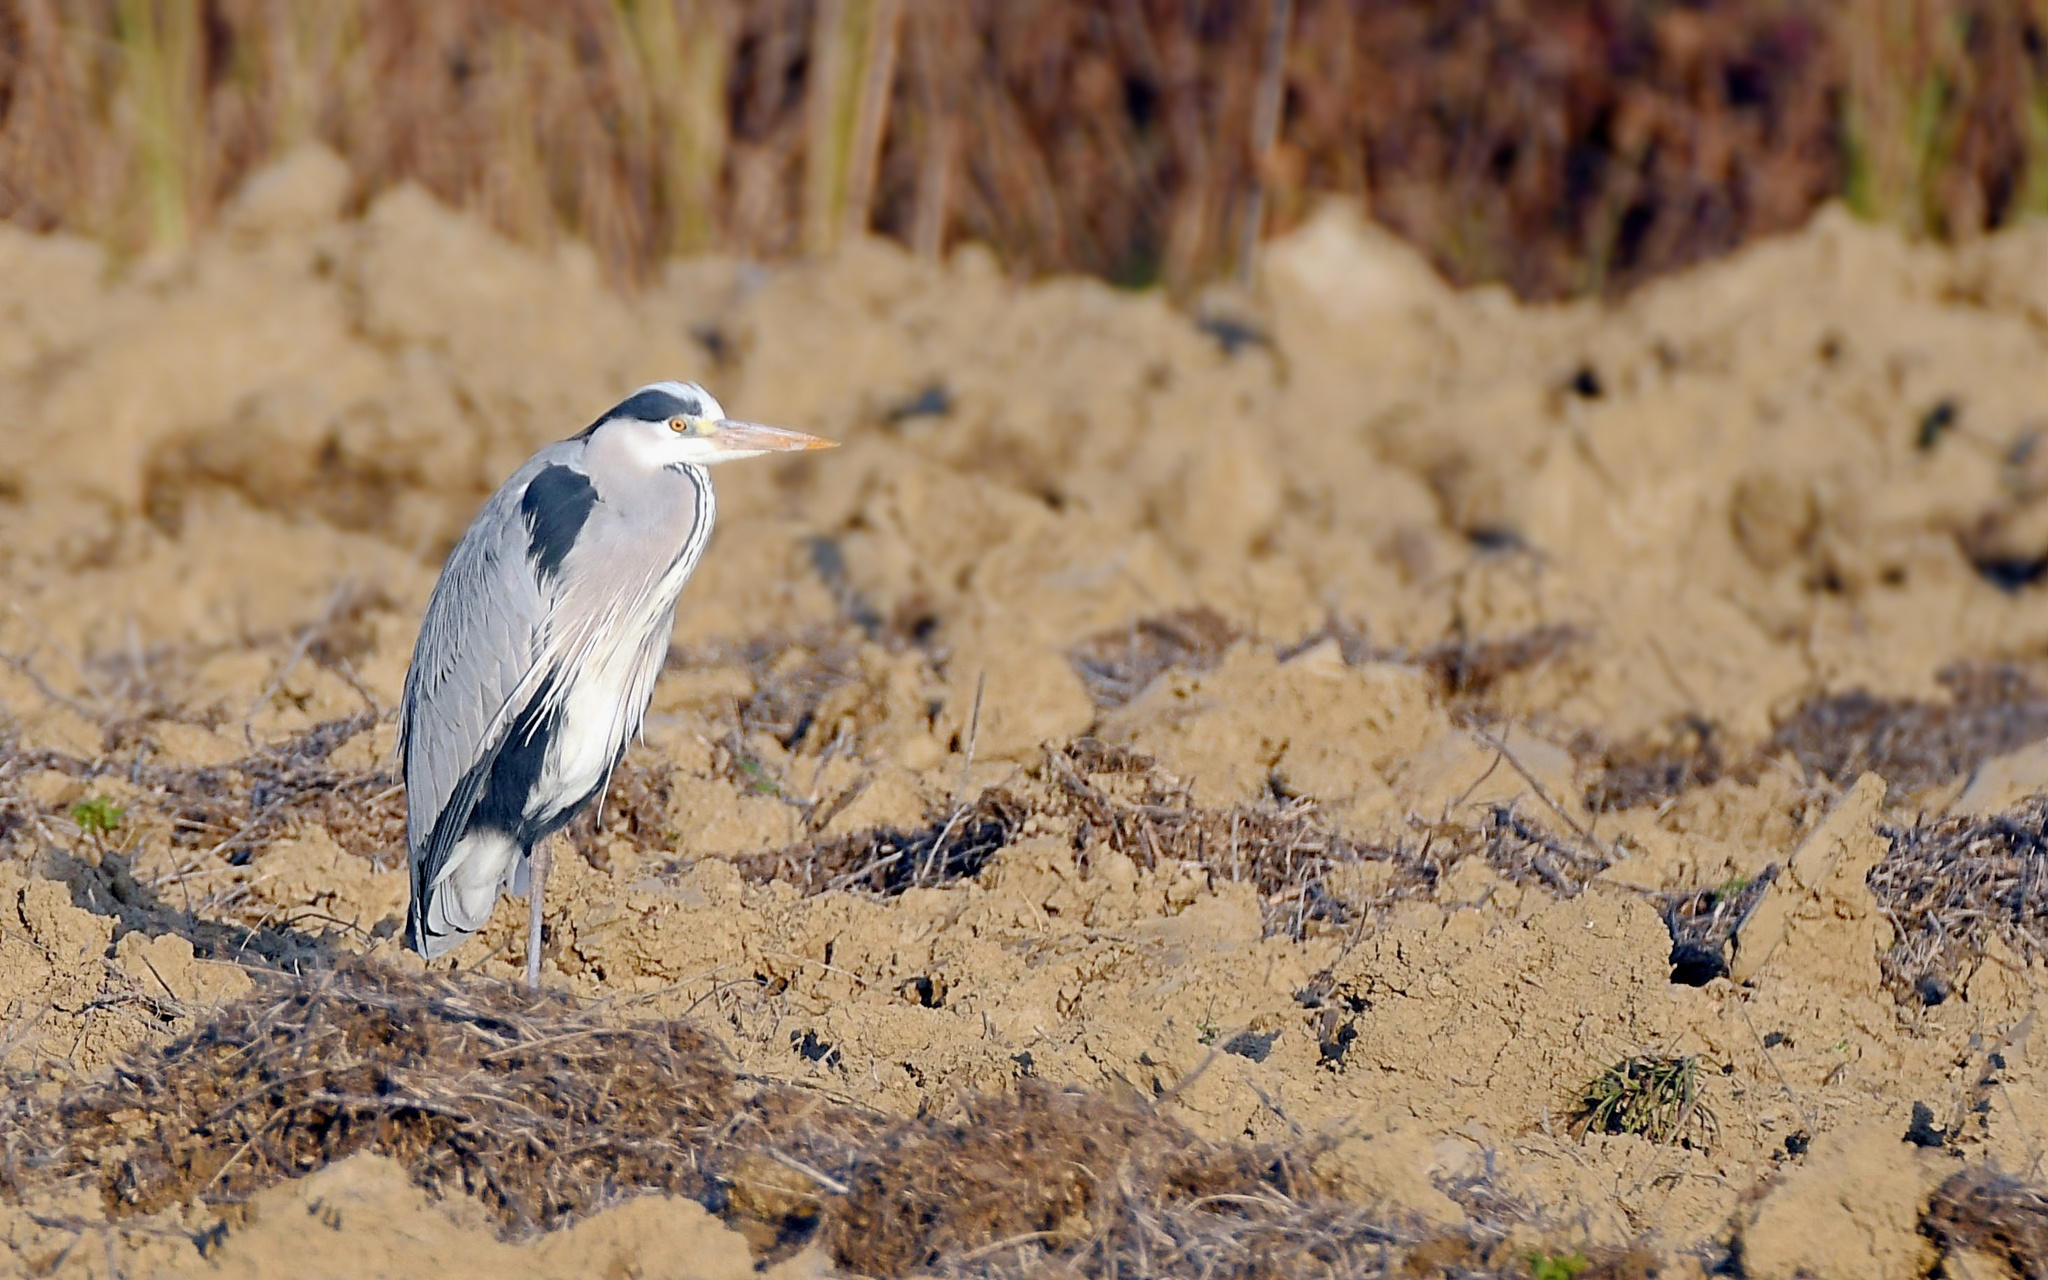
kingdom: Animalia
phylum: Chordata
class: Aves
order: Pelecaniformes
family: Ardeidae
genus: Ardea
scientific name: Ardea cinerea
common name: Grey heron
